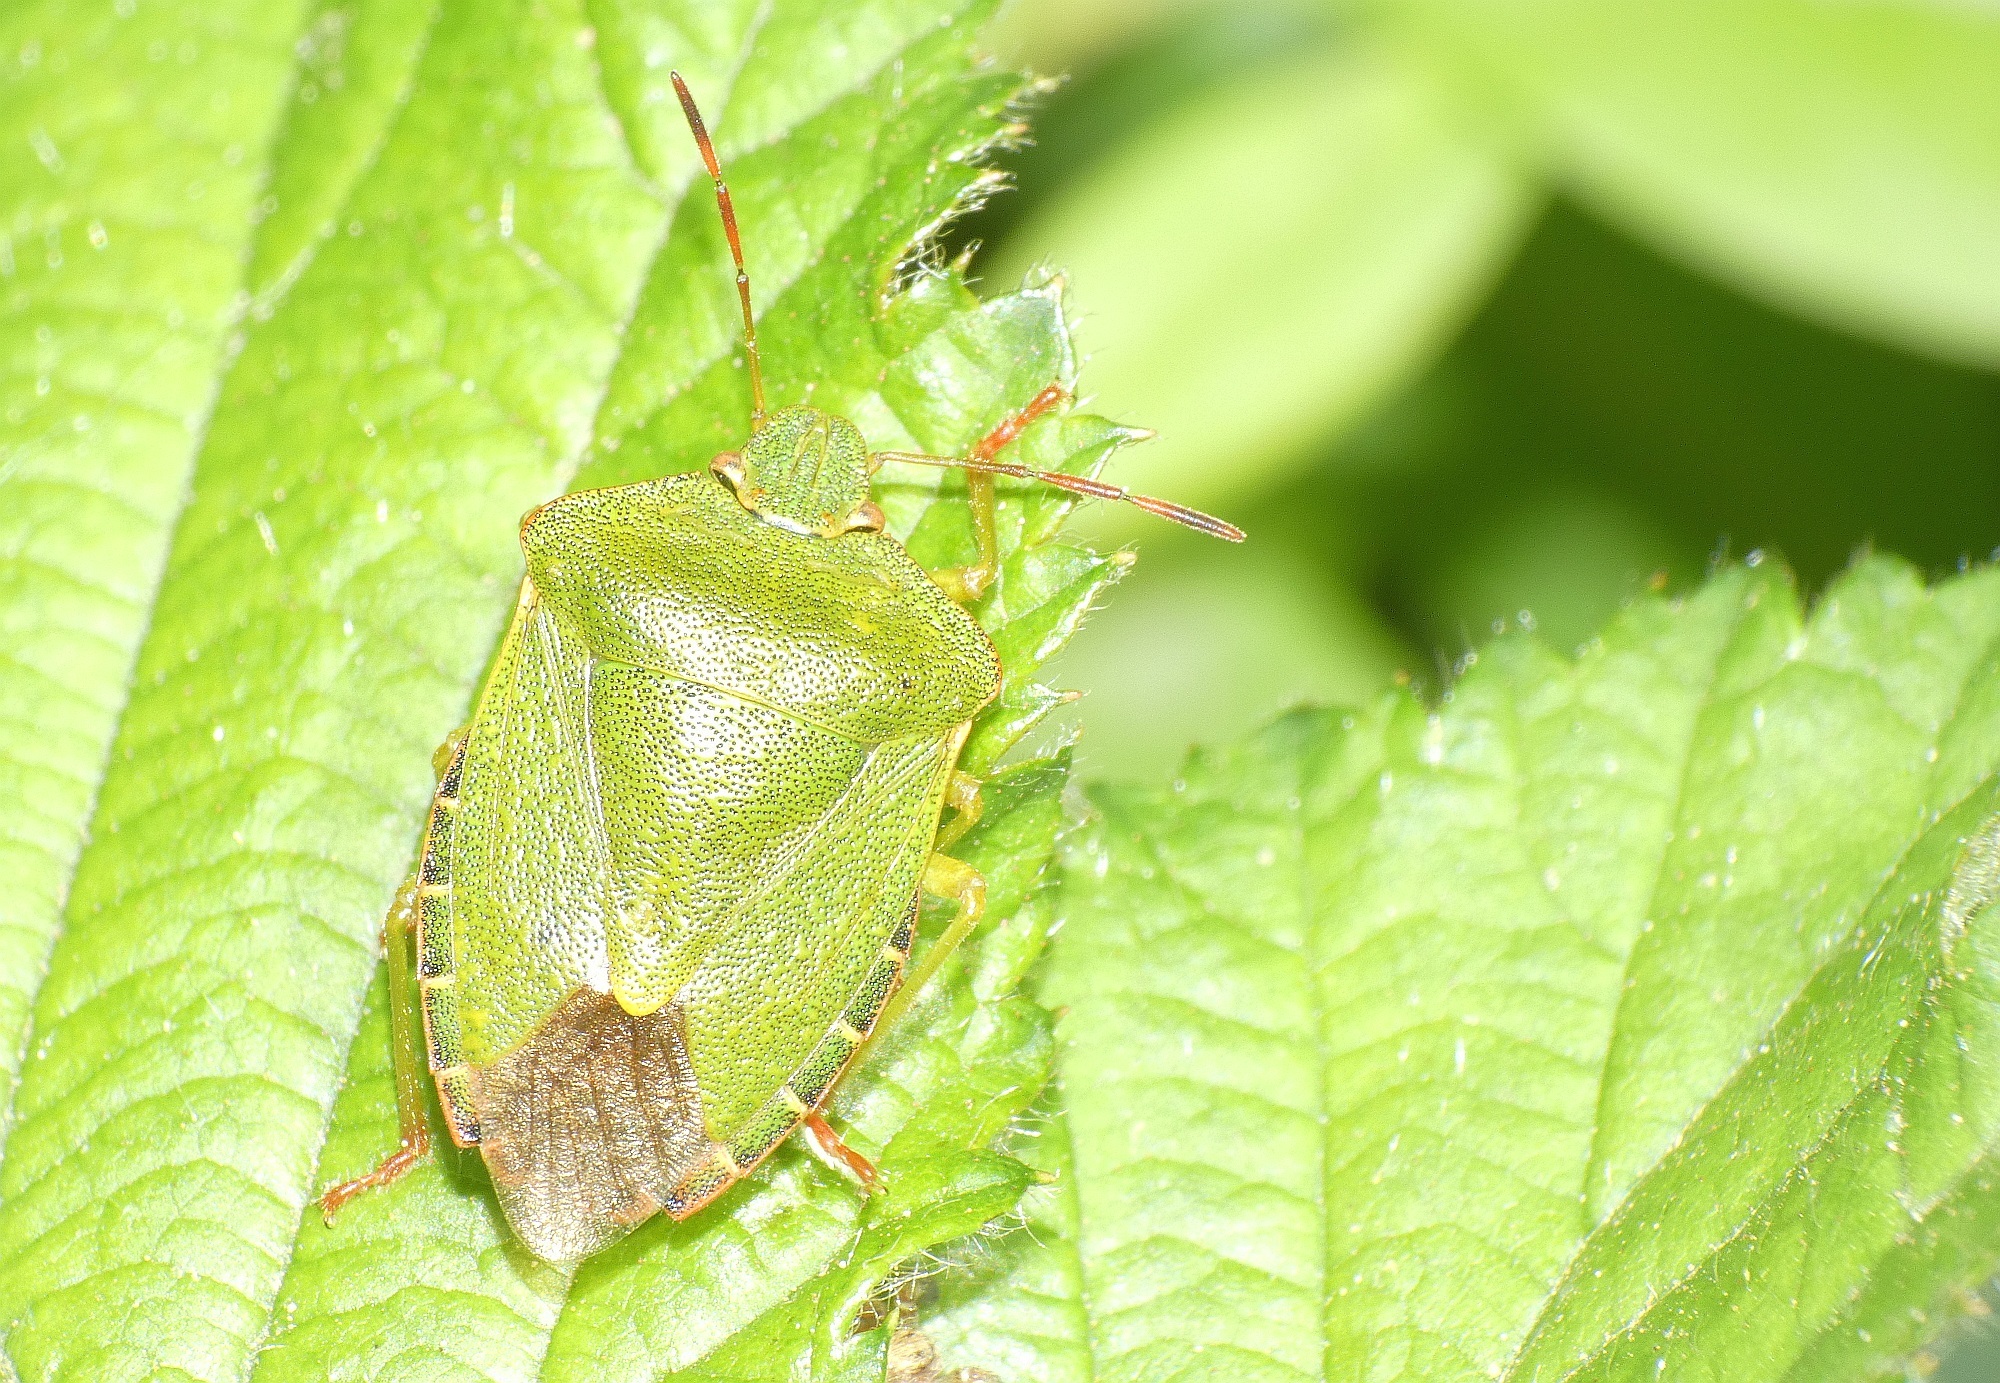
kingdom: Animalia
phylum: Arthropoda
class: Insecta
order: Hemiptera
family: Pentatomidae
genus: Palomena
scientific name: Palomena prasina
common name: Green shieldbug
